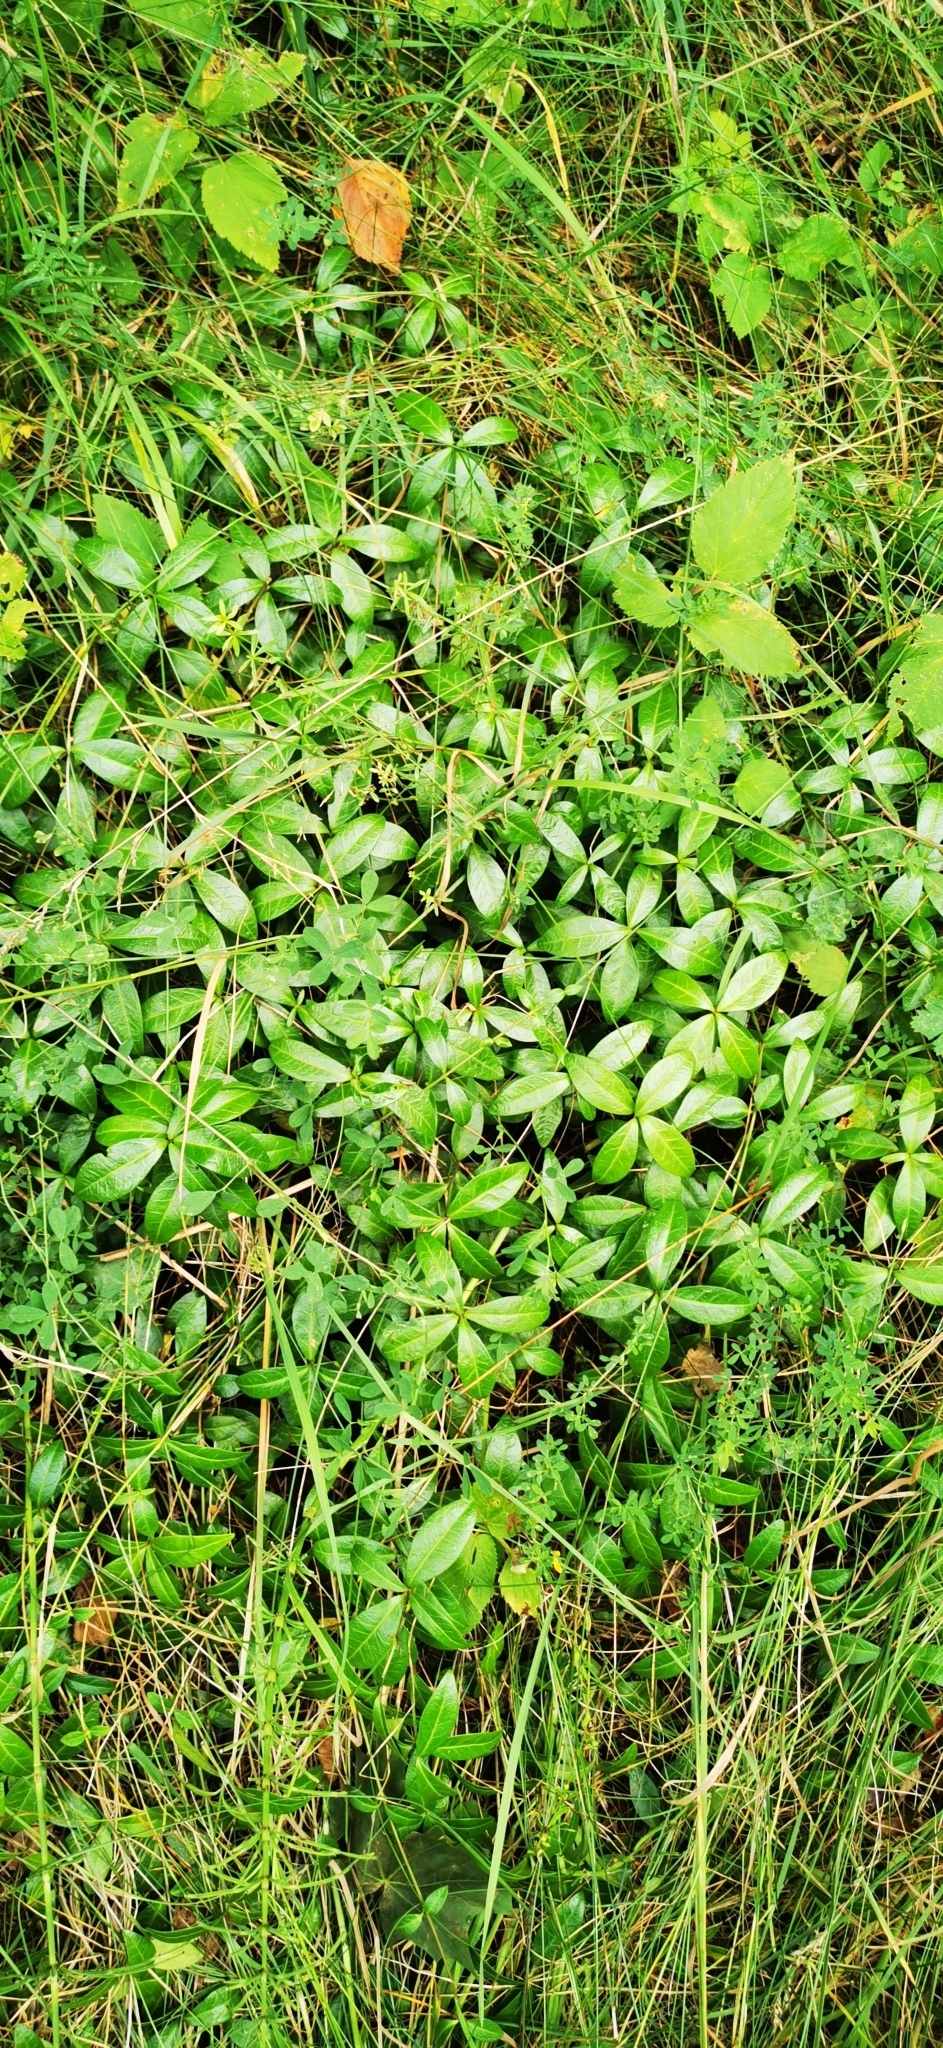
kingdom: Plantae
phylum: Tracheophyta
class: Magnoliopsida
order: Gentianales
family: Apocynaceae
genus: Vinca
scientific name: Vinca minor
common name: Lesser periwinkle
